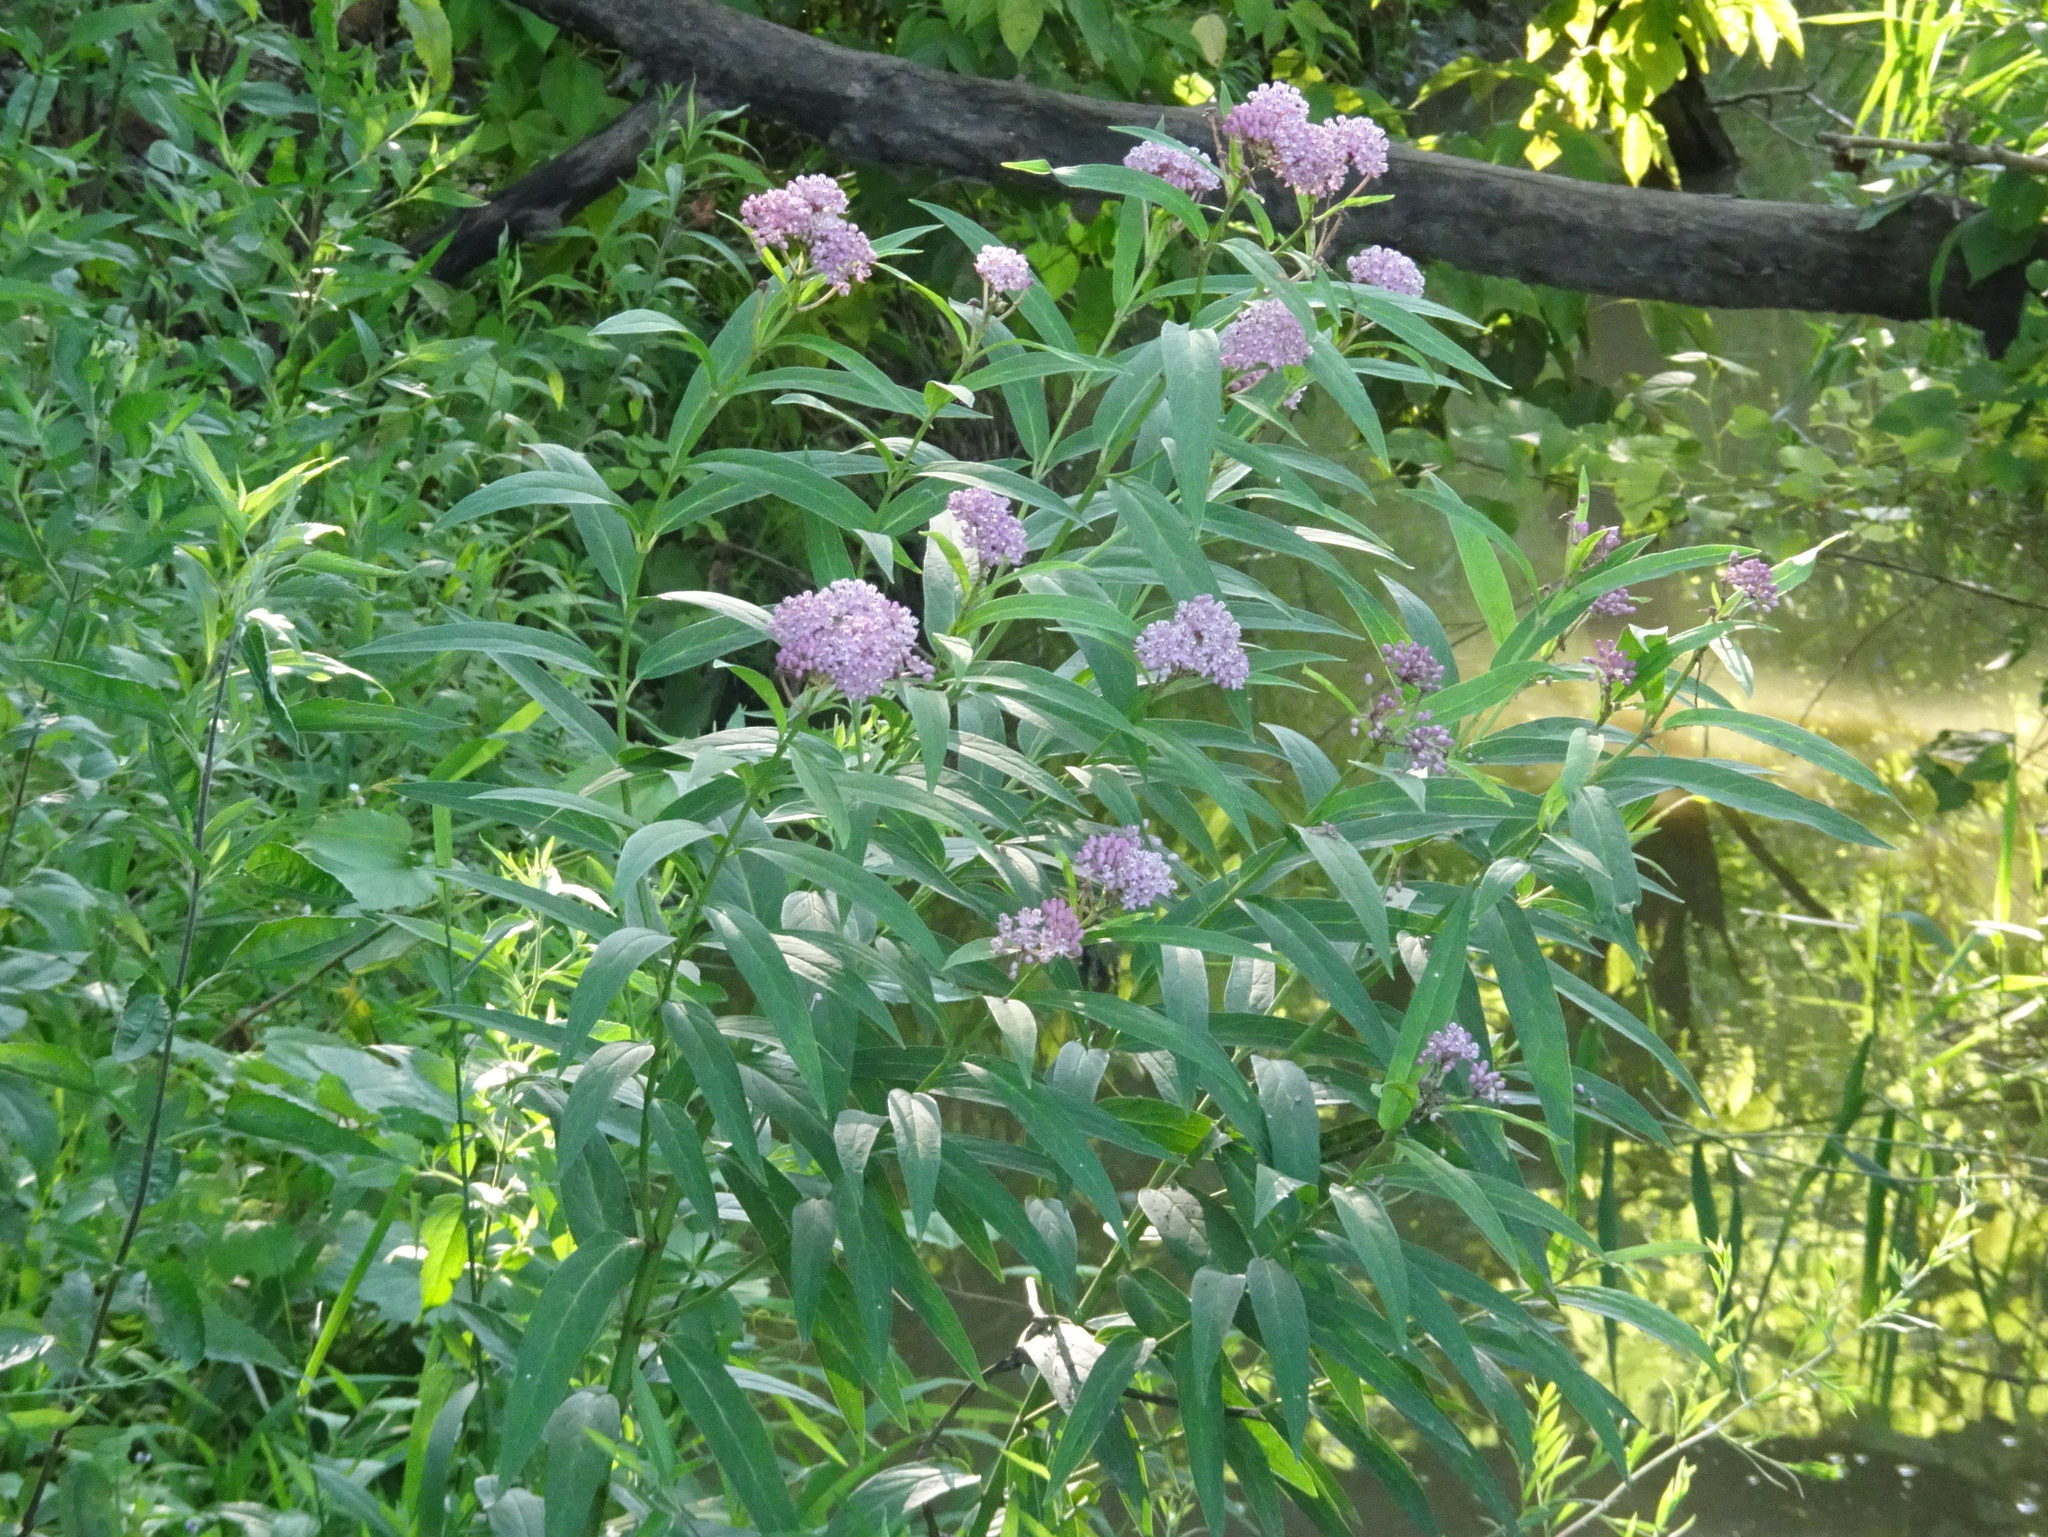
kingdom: Plantae
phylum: Tracheophyta
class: Magnoliopsida
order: Gentianales
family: Apocynaceae
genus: Asclepias
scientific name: Asclepias incarnata
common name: Swamp milkweed
